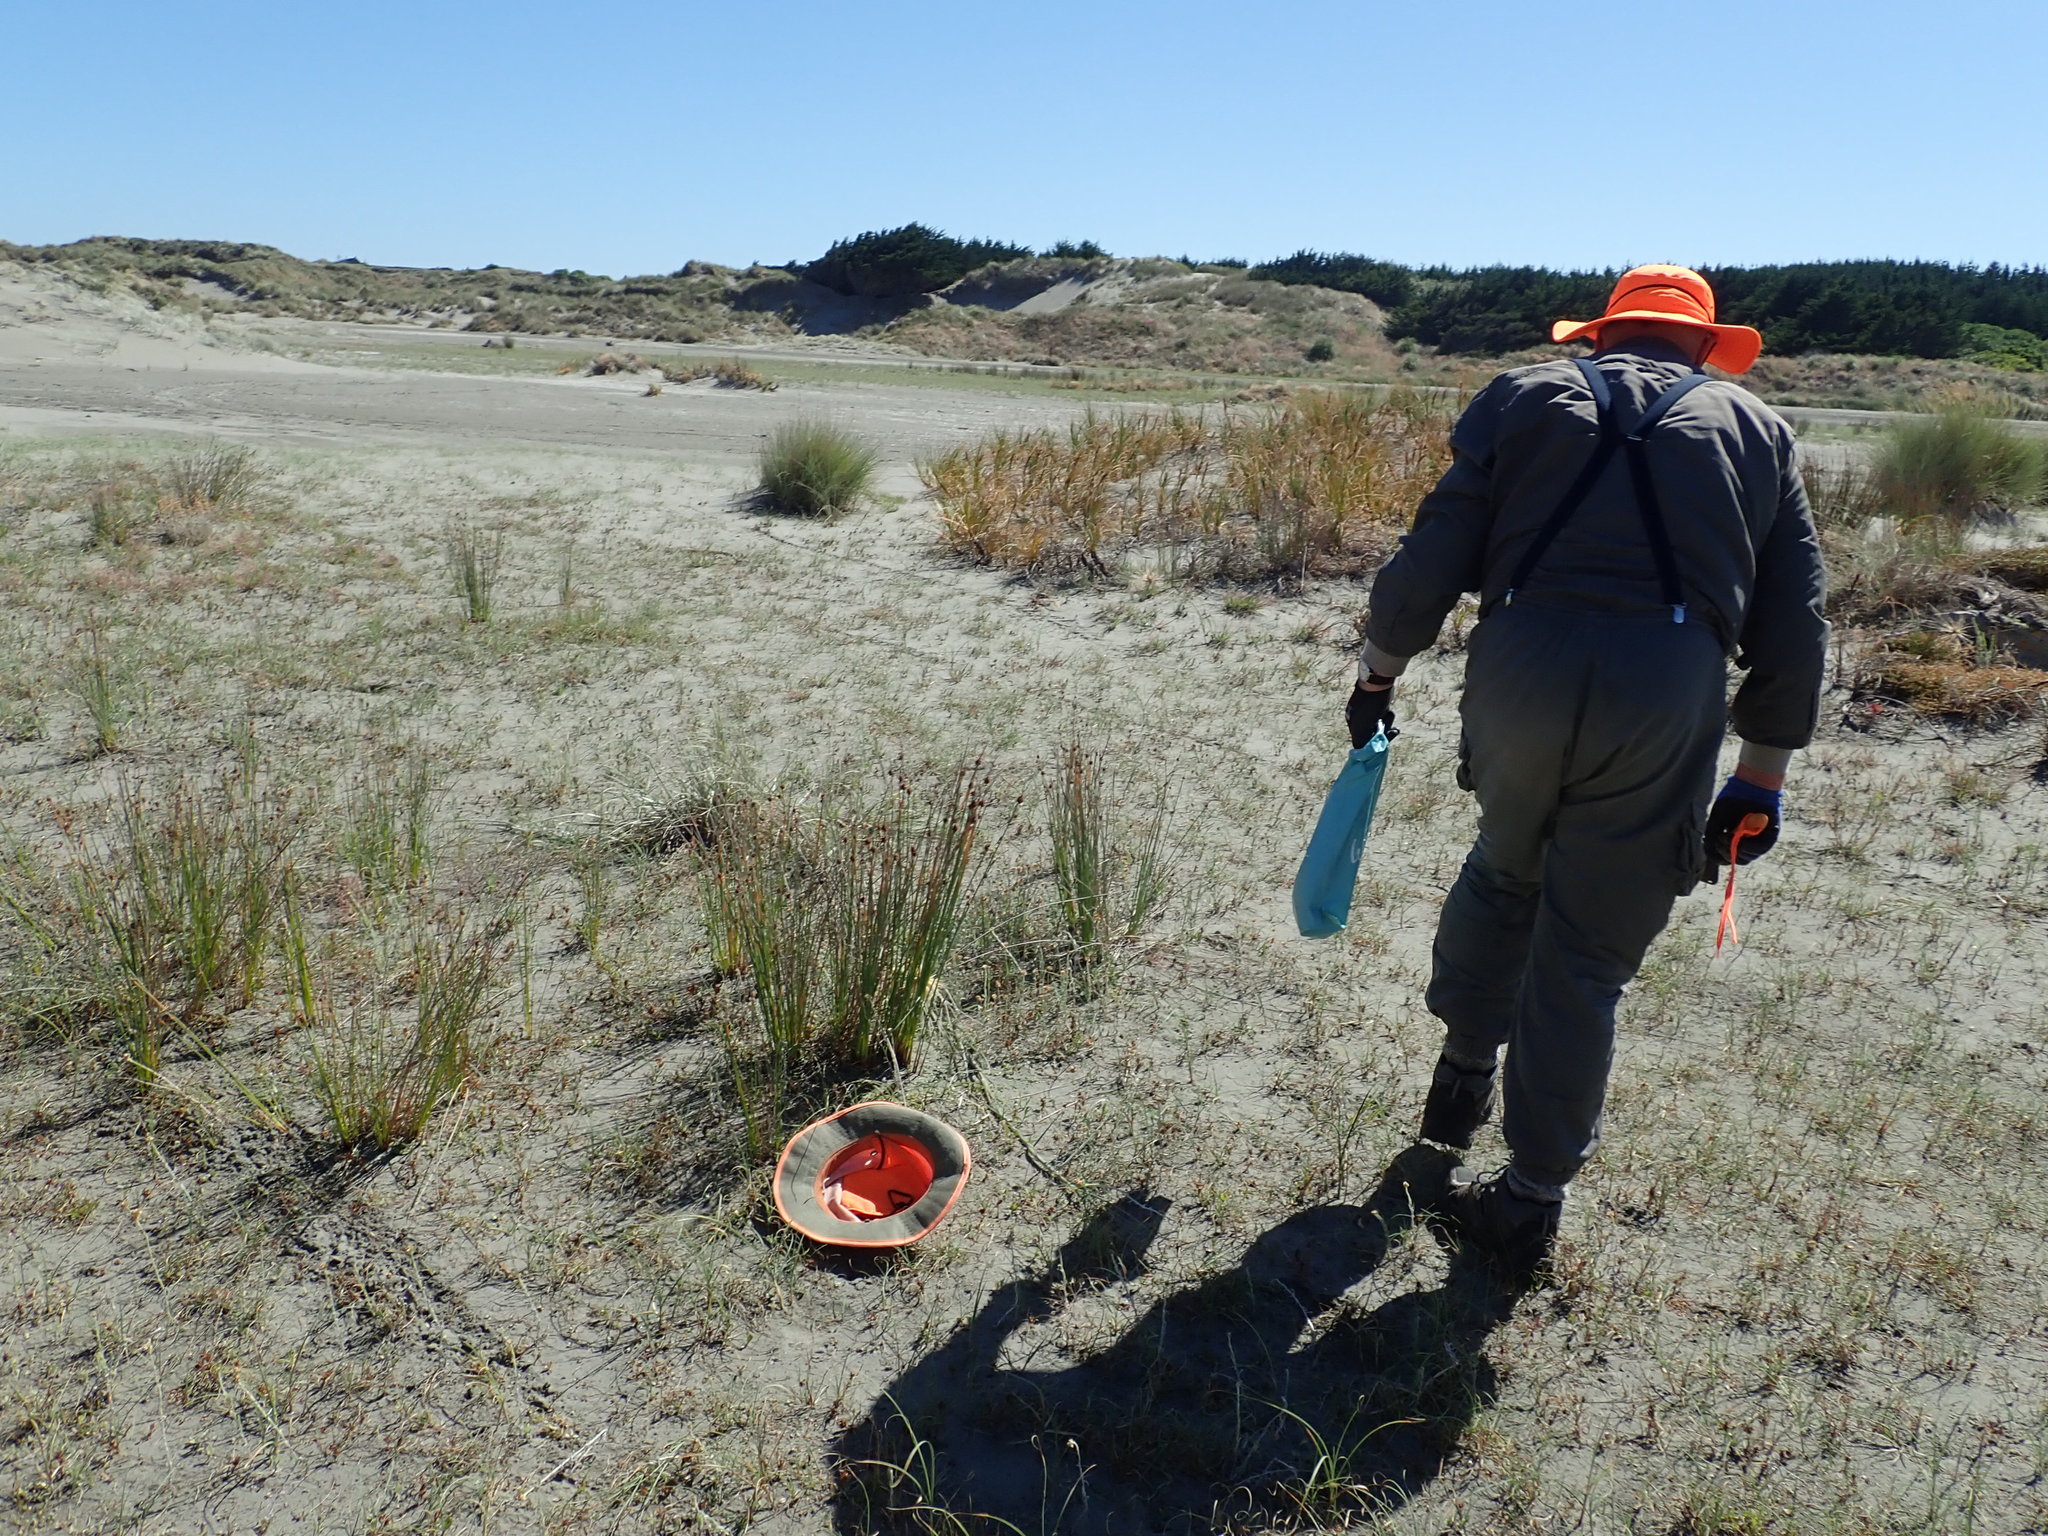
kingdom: Plantae
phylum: Tracheophyta
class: Magnoliopsida
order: Asterales
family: Goodeniaceae
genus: Goodenia
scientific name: Goodenia heenanii
